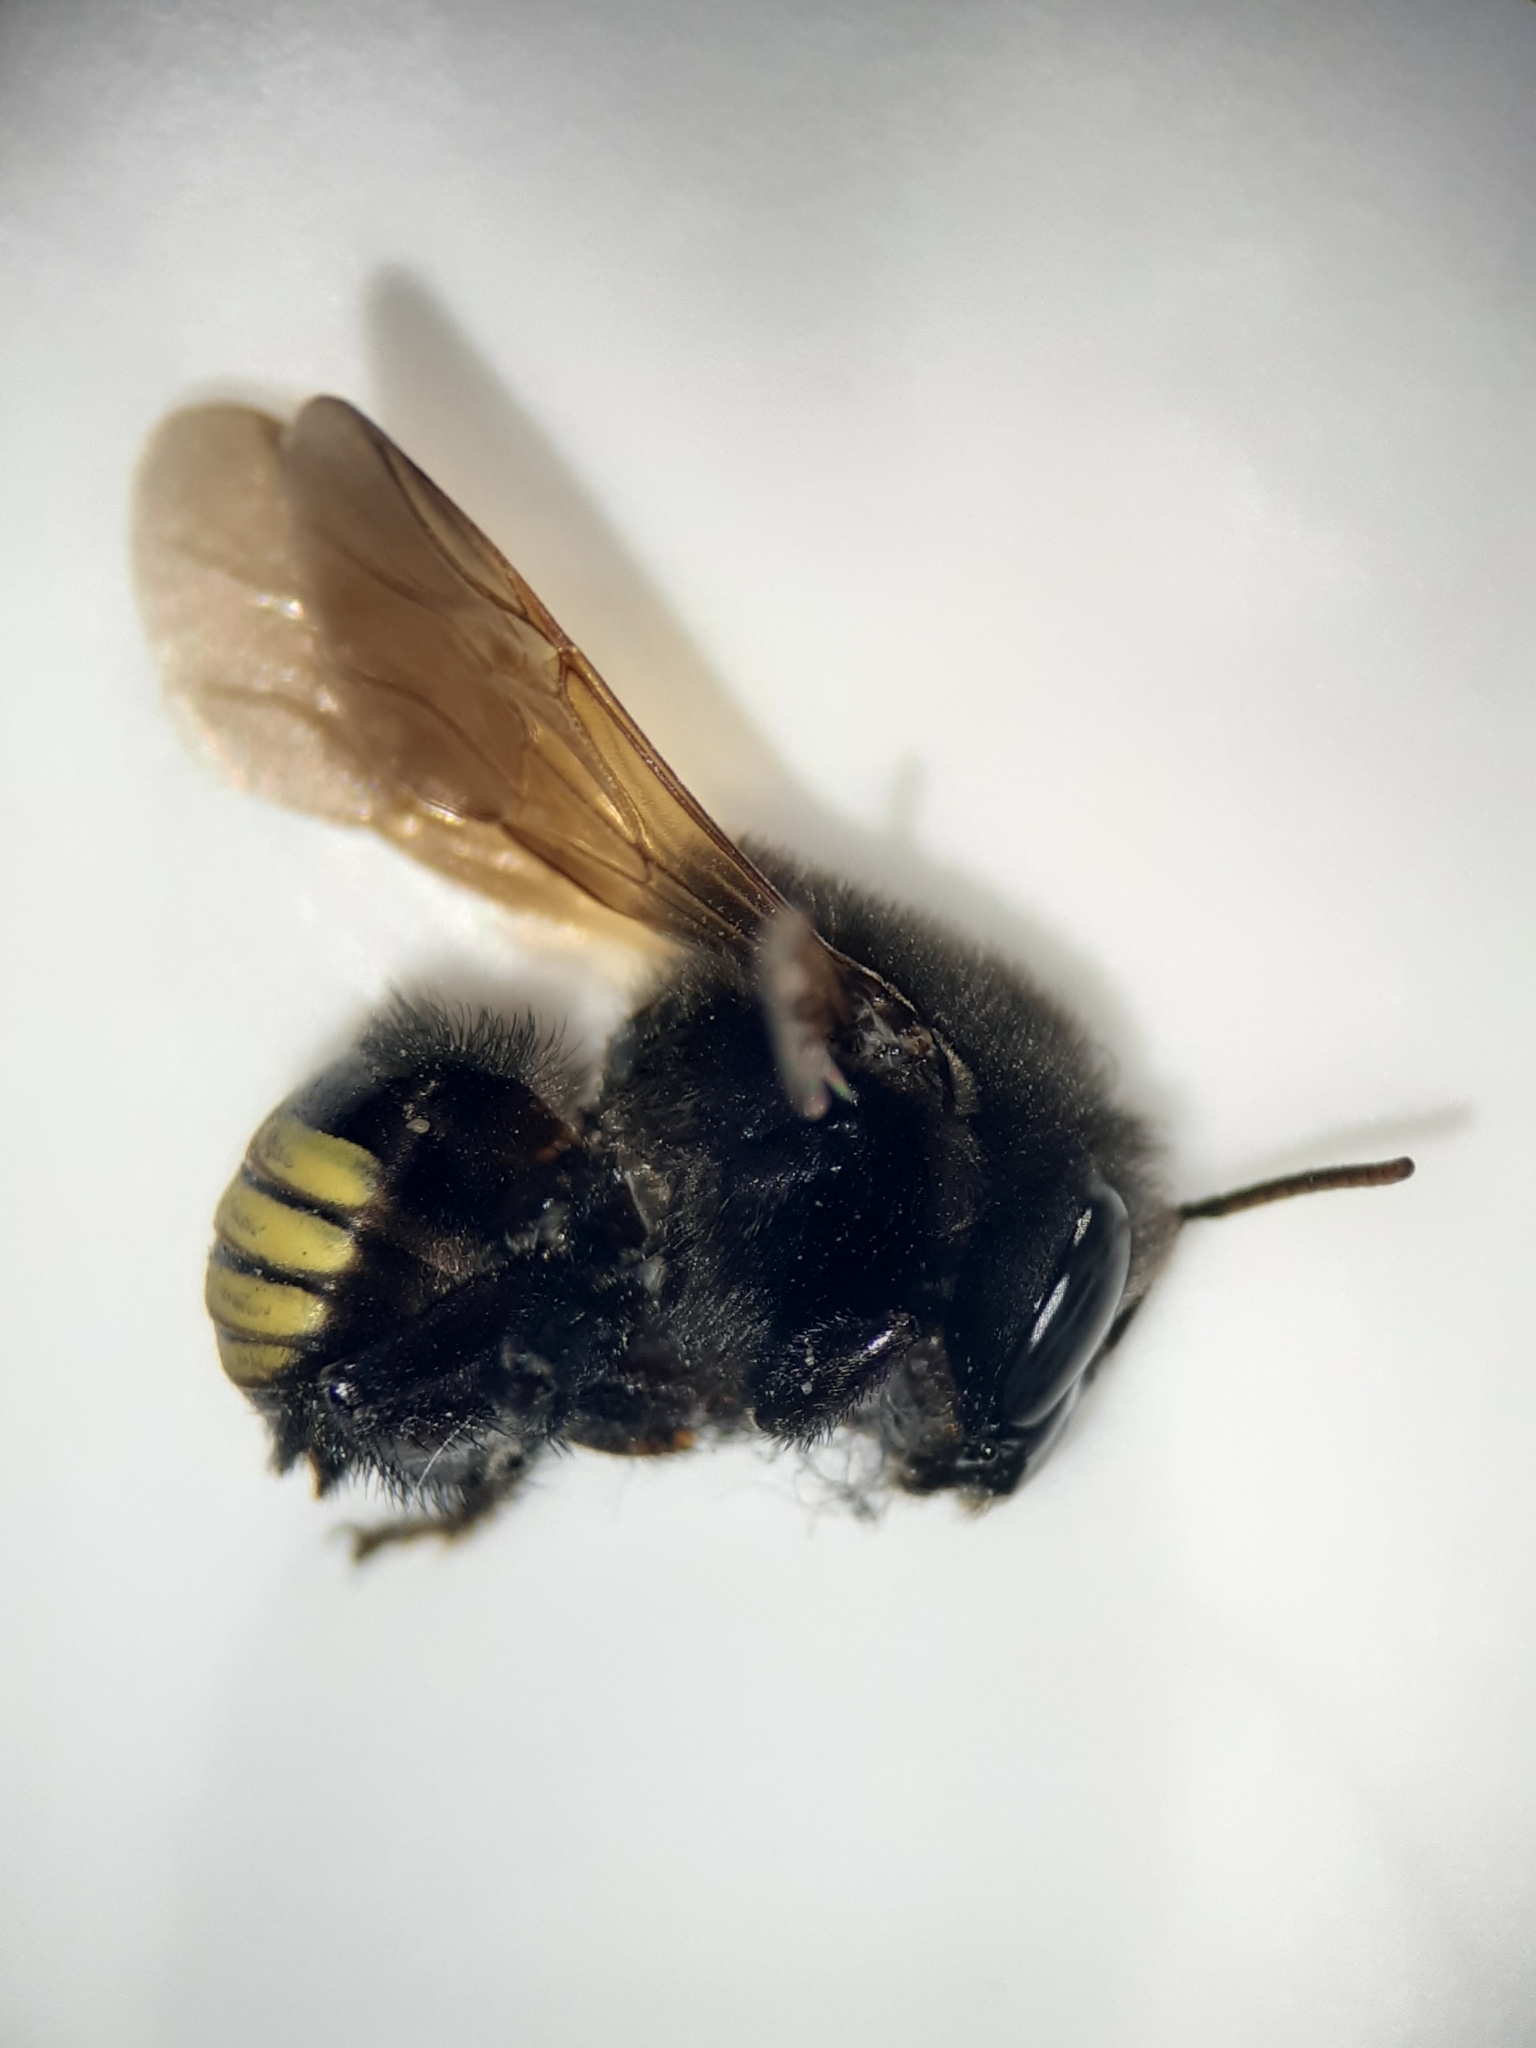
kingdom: Animalia
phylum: Arthropoda
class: Insecta
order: Hymenoptera
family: Apidae
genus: Melipona
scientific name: Melipona quadrifasciata
